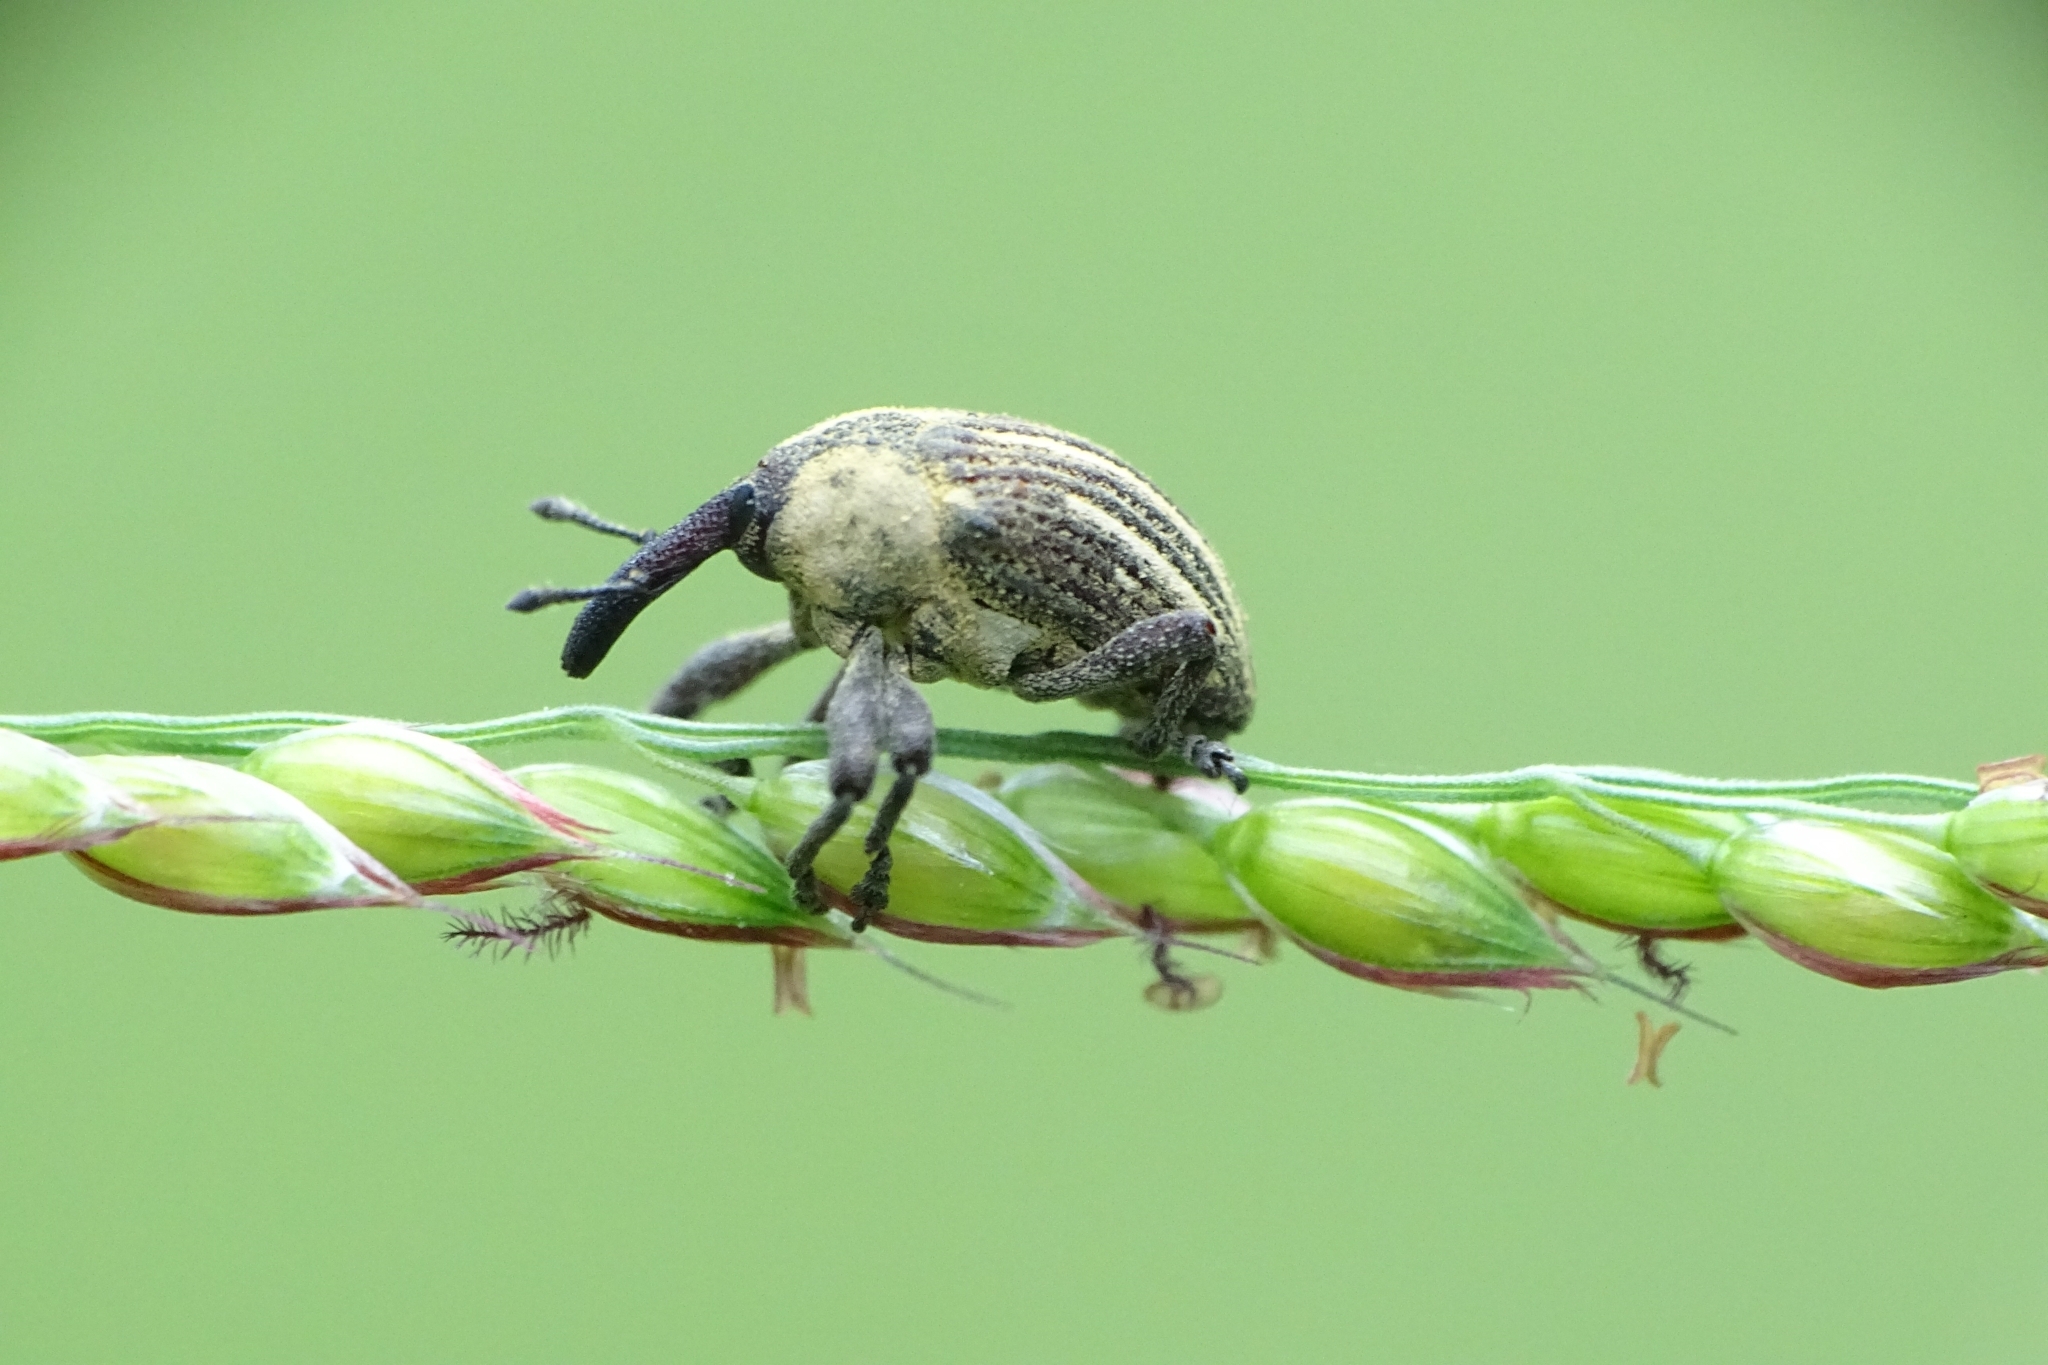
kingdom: Animalia
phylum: Arthropoda
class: Insecta
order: Coleoptera
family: Curculionidae
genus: Sternuchopsis
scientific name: Sternuchopsis
